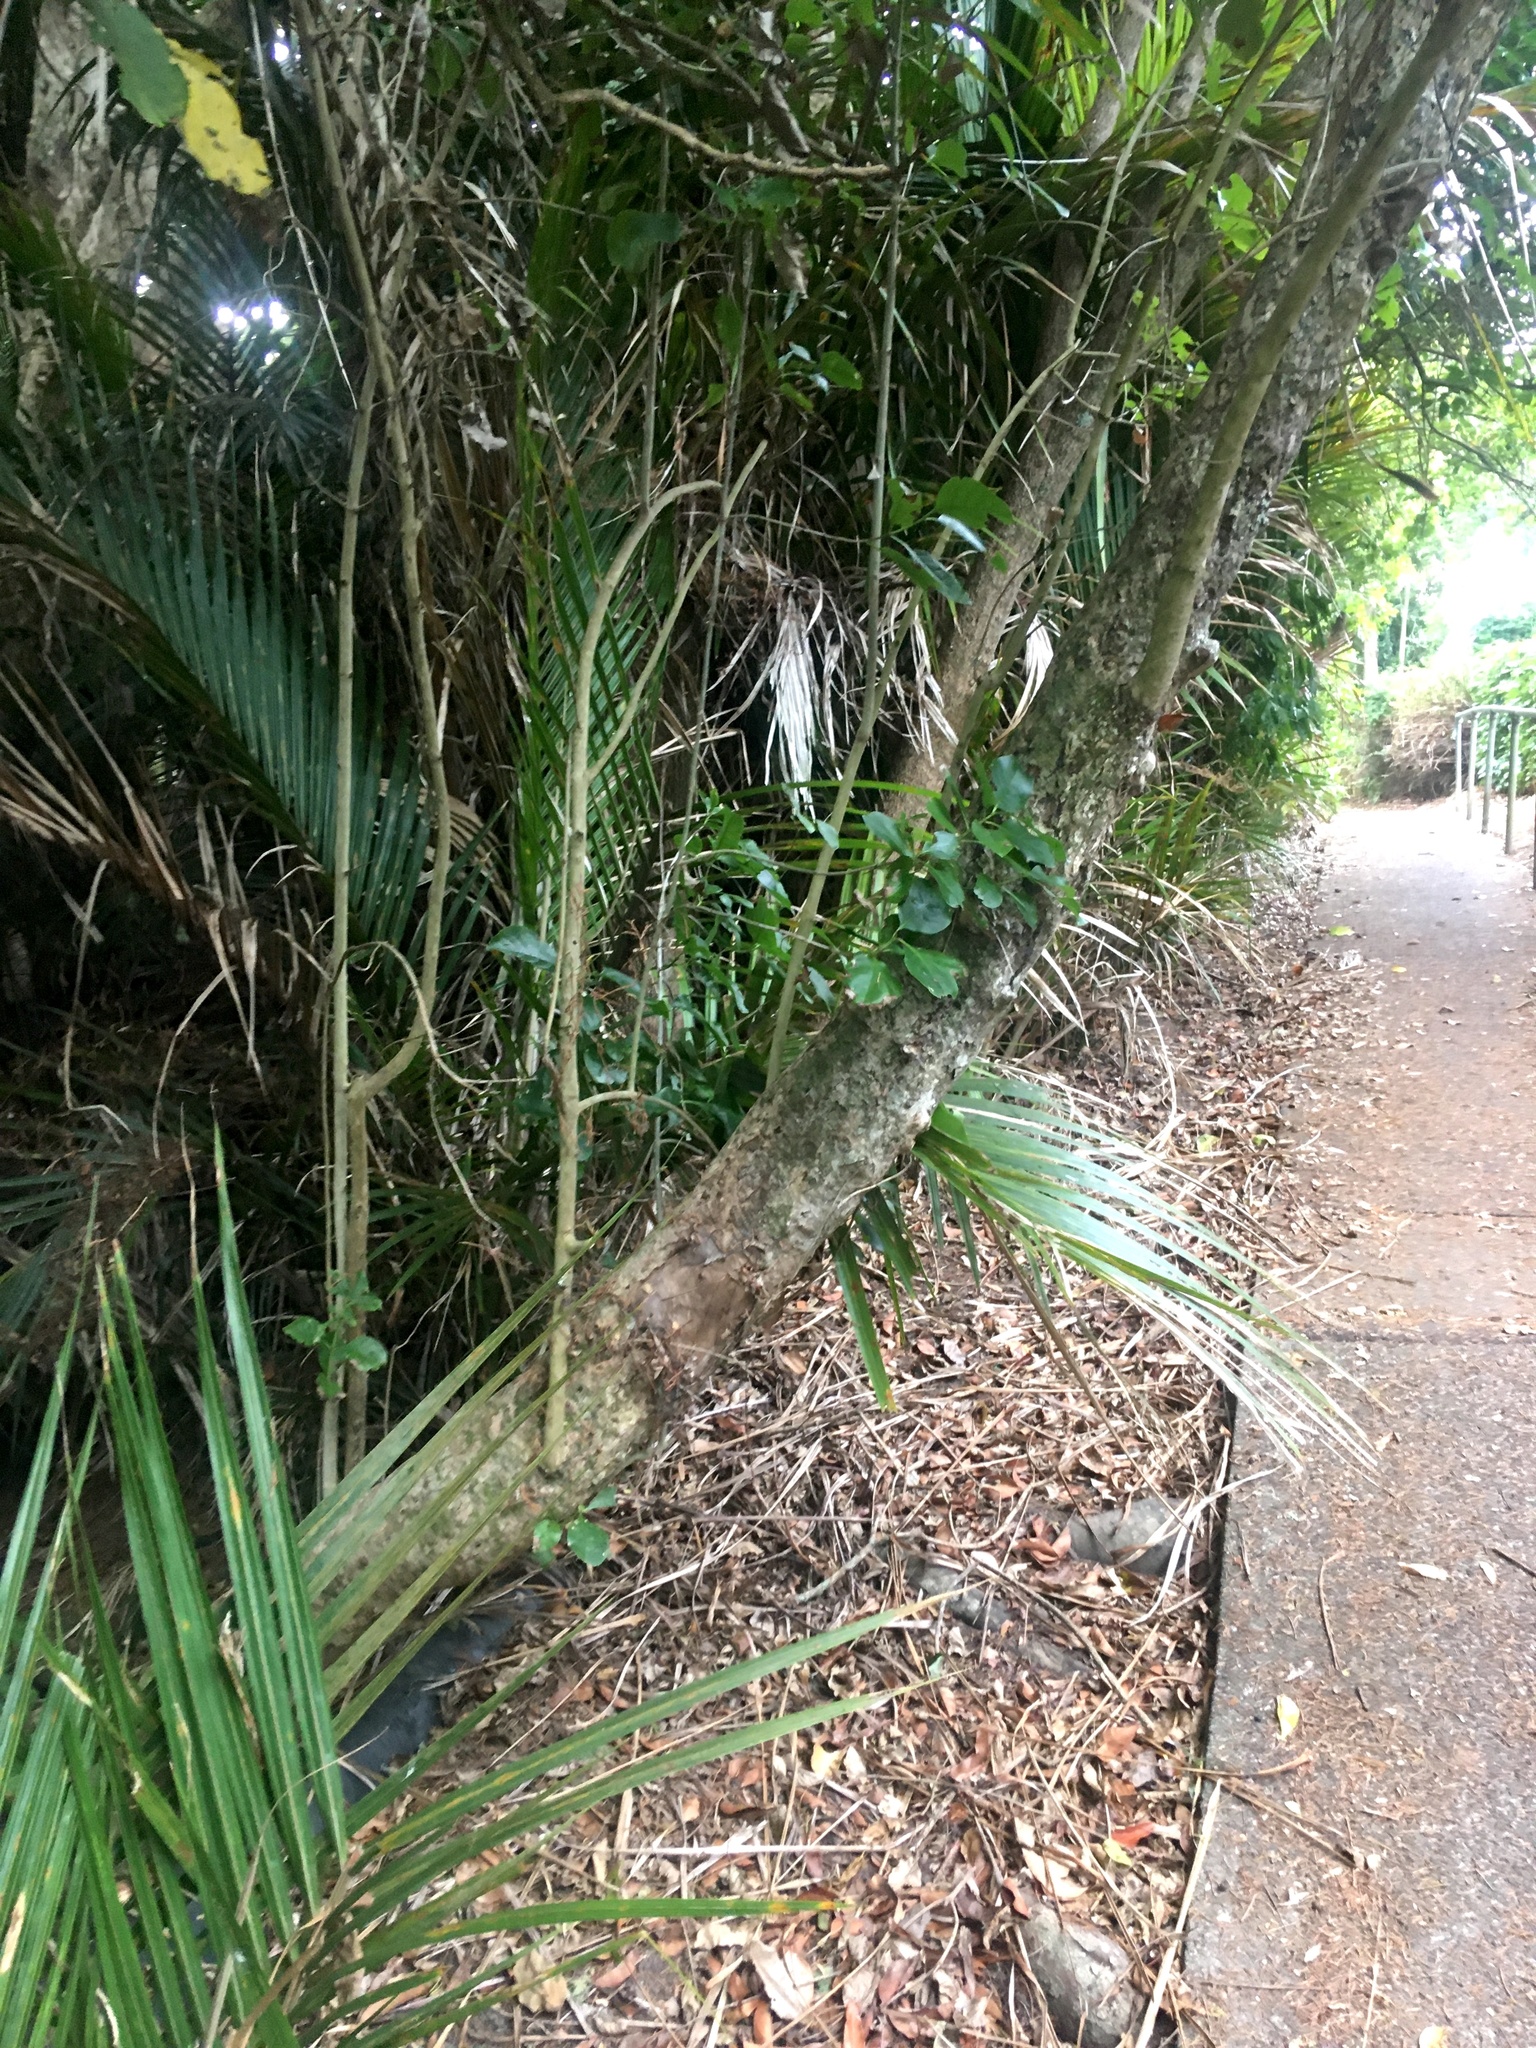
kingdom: Plantae
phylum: Tracheophyta
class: Magnoliopsida
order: Sapindales
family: Meliaceae
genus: Didymocheton
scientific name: Didymocheton spectabilis
